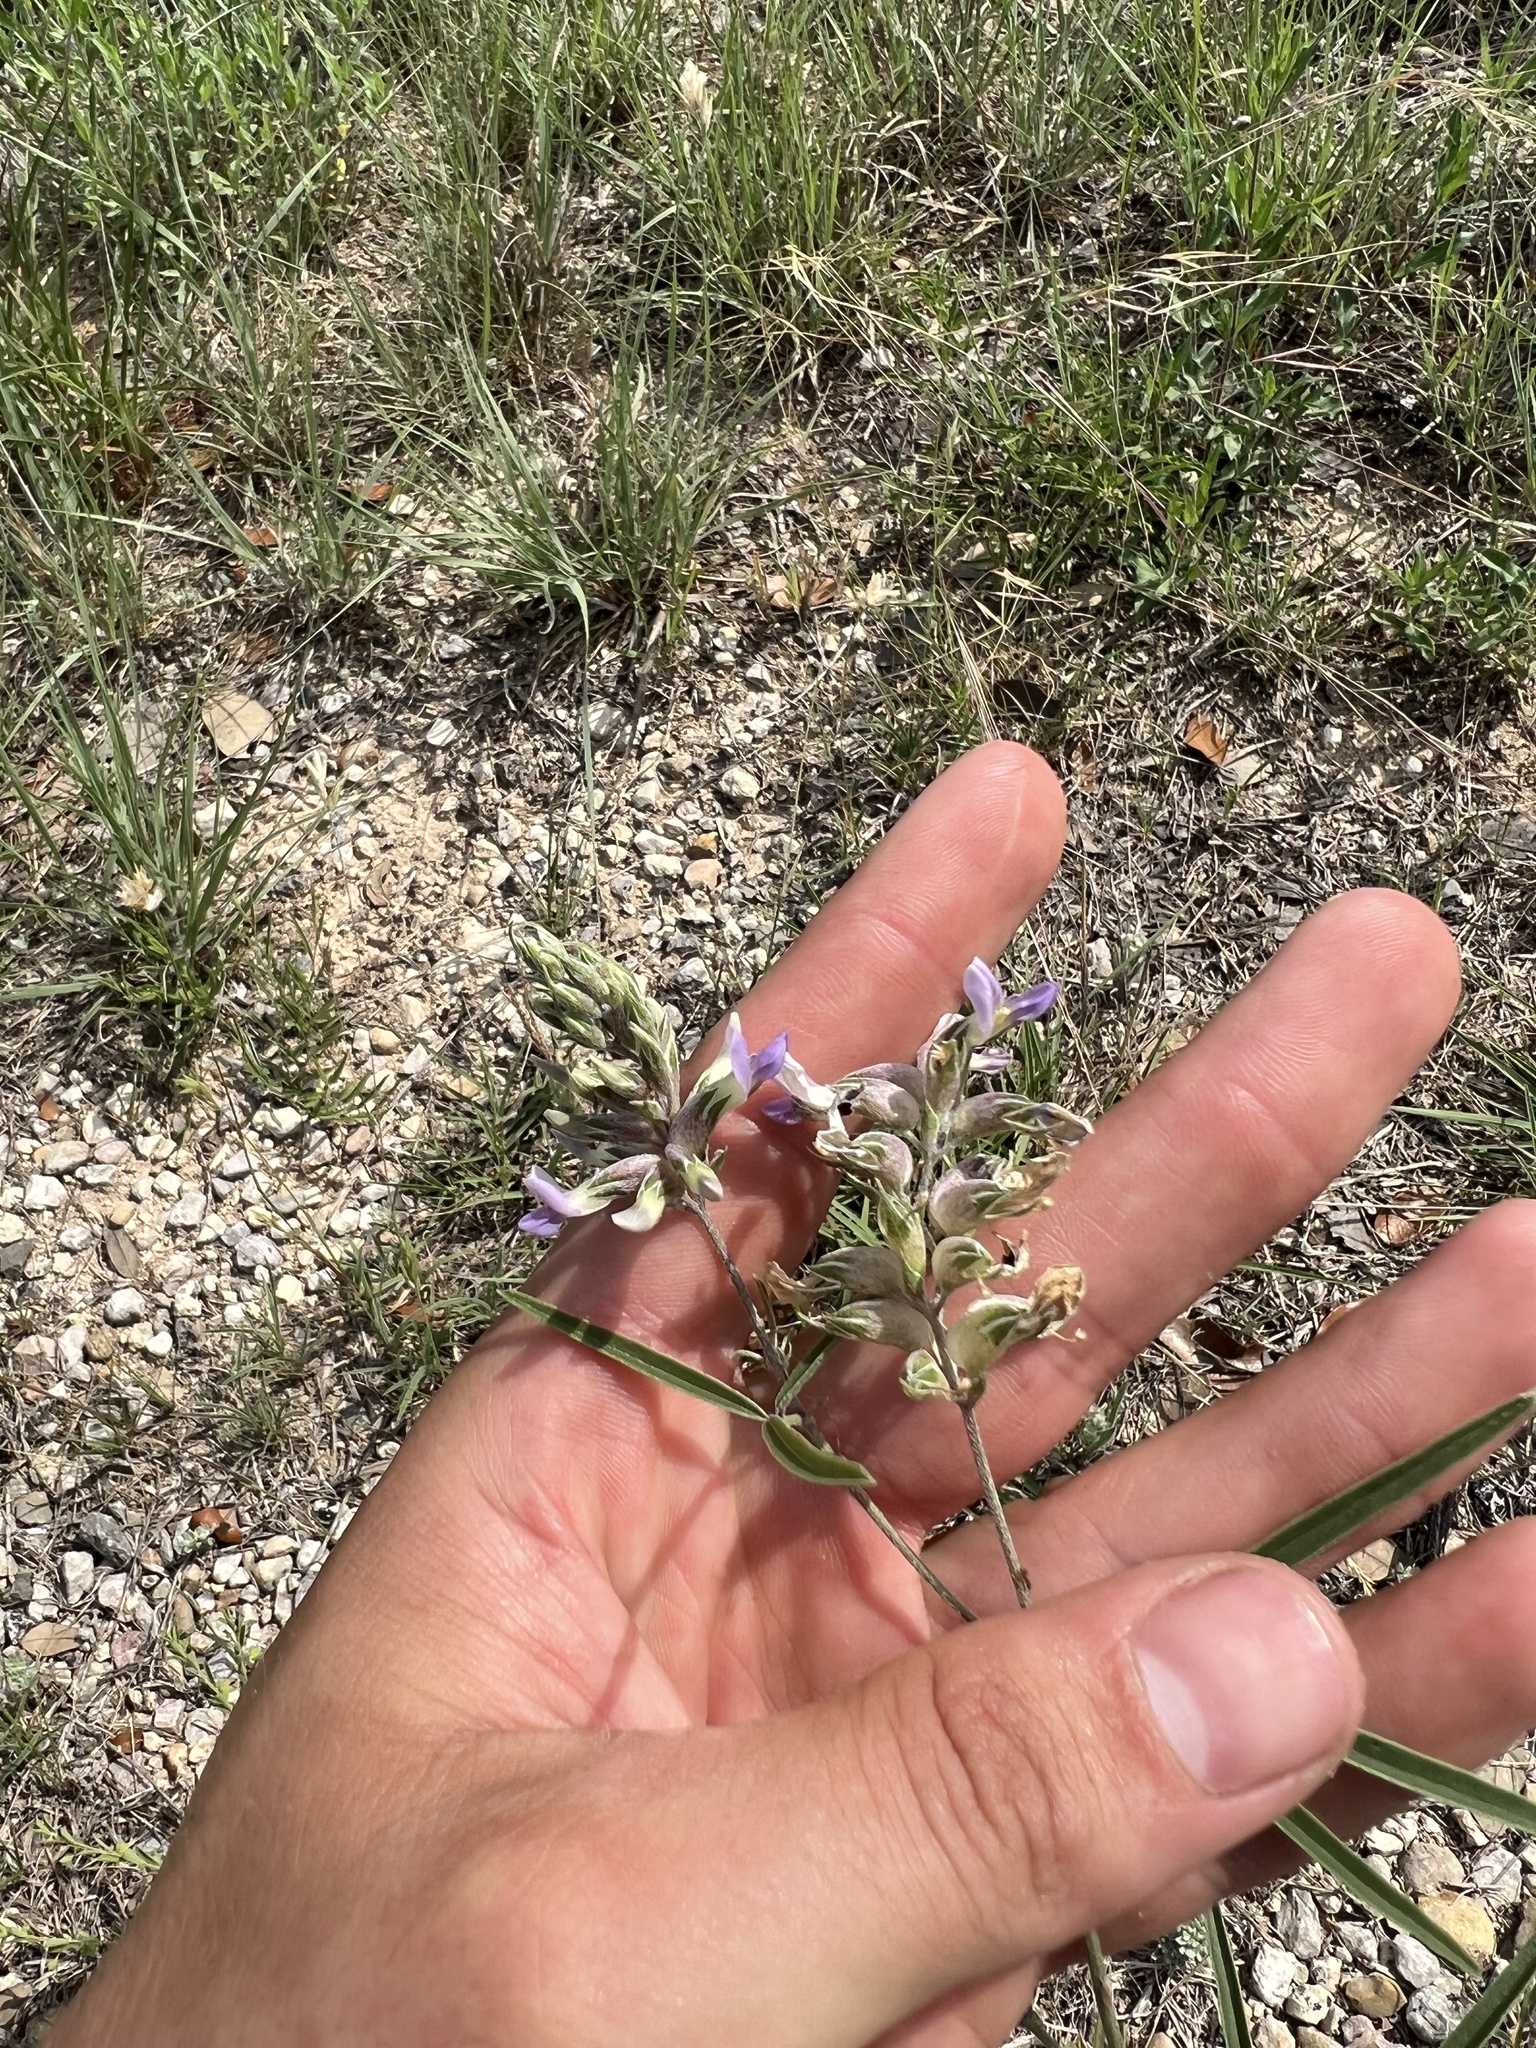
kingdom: Plantae
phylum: Tracheophyta
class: Magnoliopsida
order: Fabales
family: Fabaceae
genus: Pediomelum
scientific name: Pediomelum cyphocalyx
